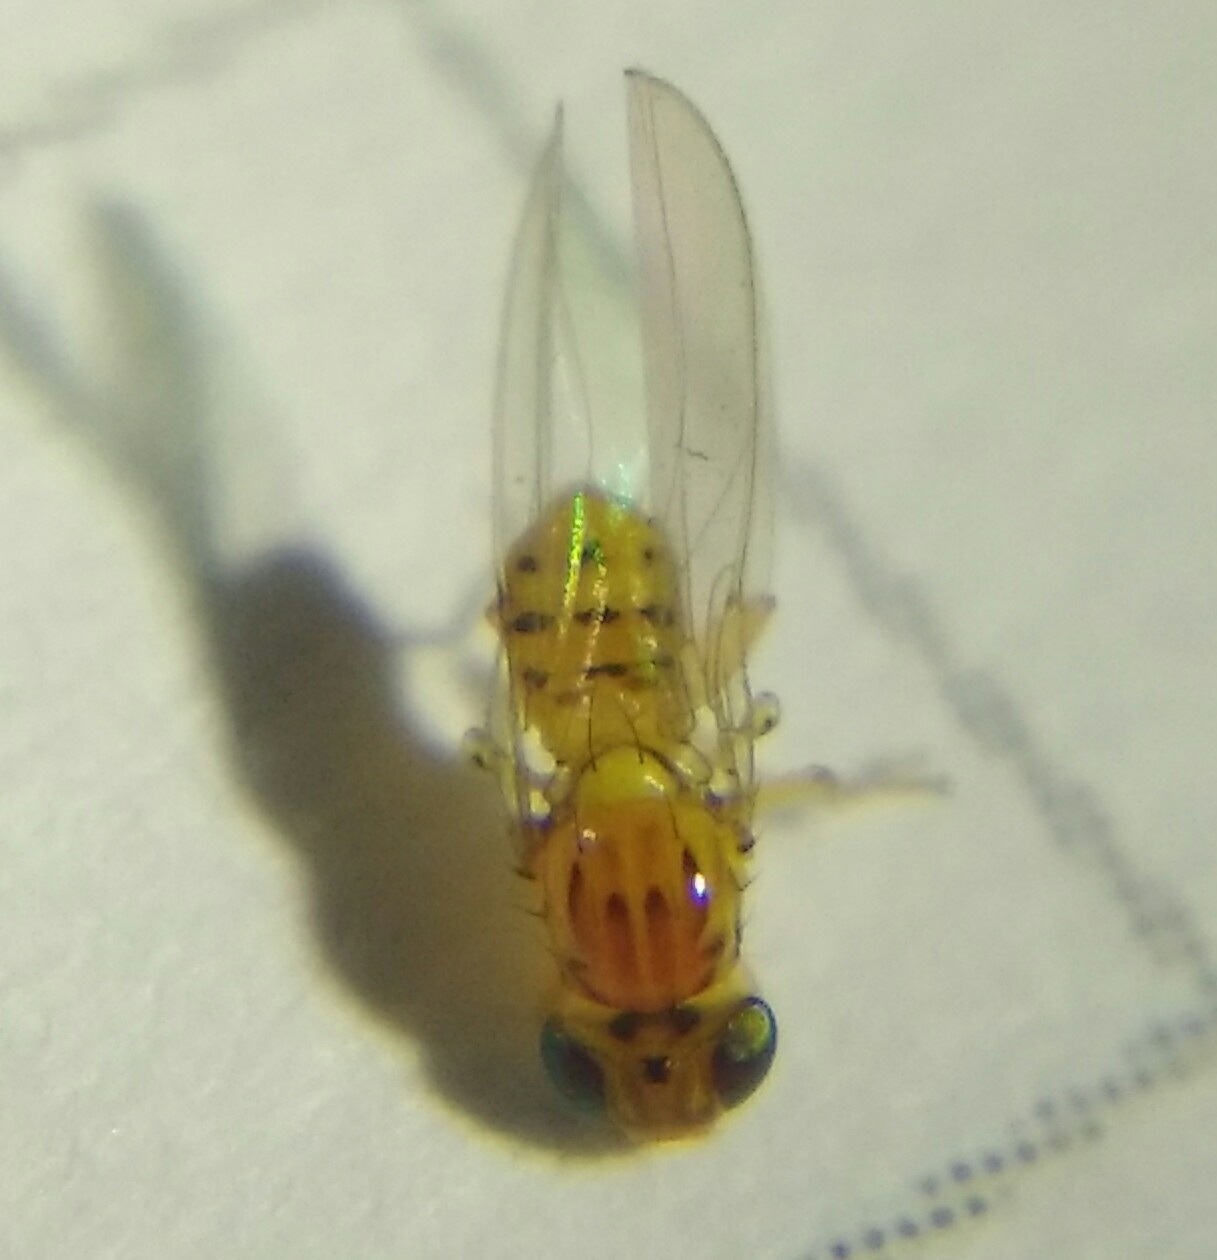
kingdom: Animalia
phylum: Arthropoda
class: Insecta
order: Diptera
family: Asteiidae
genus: Asteia
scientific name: Asteia elegantula
